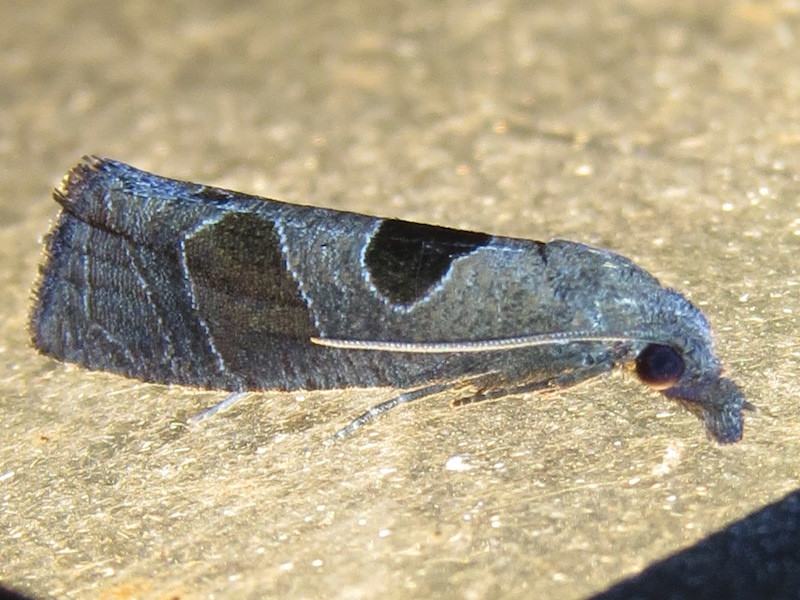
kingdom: Animalia
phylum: Arthropoda
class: Insecta
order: Lepidoptera
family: Tortricidae
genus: Pelochrista
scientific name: Pelochrista dorsisignatana
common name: Triangle-backed pelochrista moth
